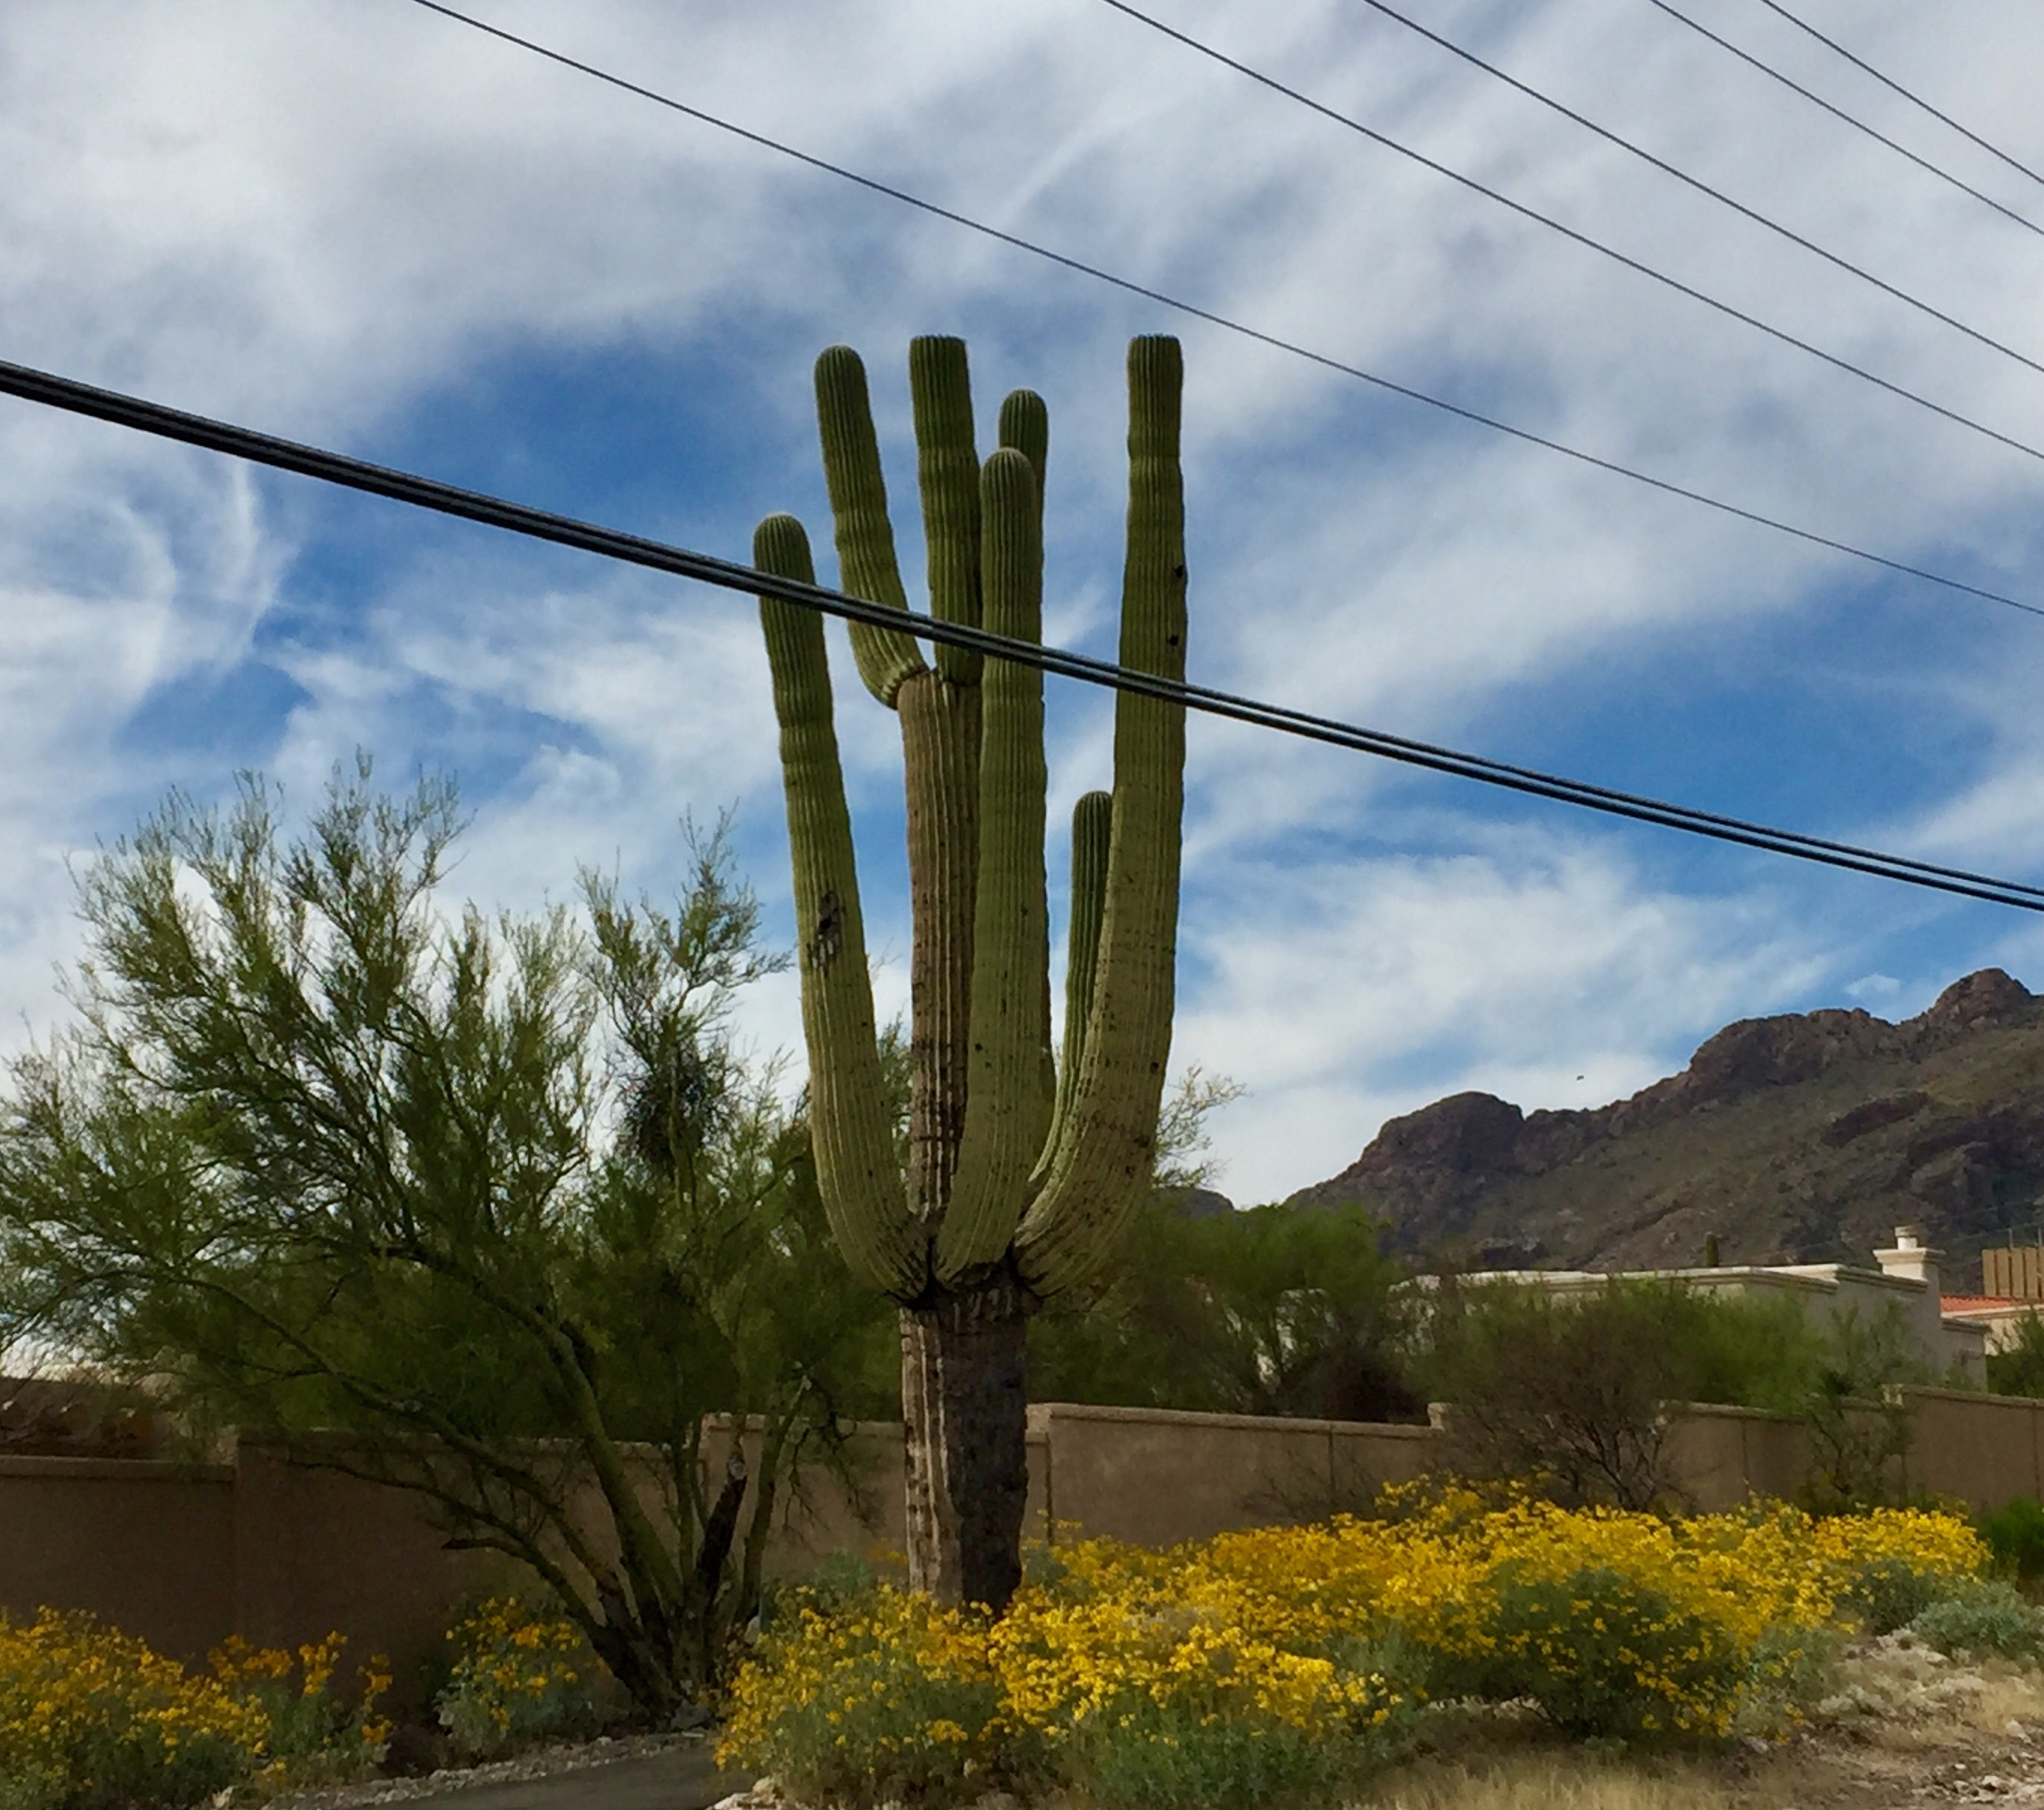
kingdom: Plantae
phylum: Tracheophyta
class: Magnoliopsida
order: Caryophyllales
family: Cactaceae
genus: Carnegiea
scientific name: Carnegiea gigantea
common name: Saguaro
